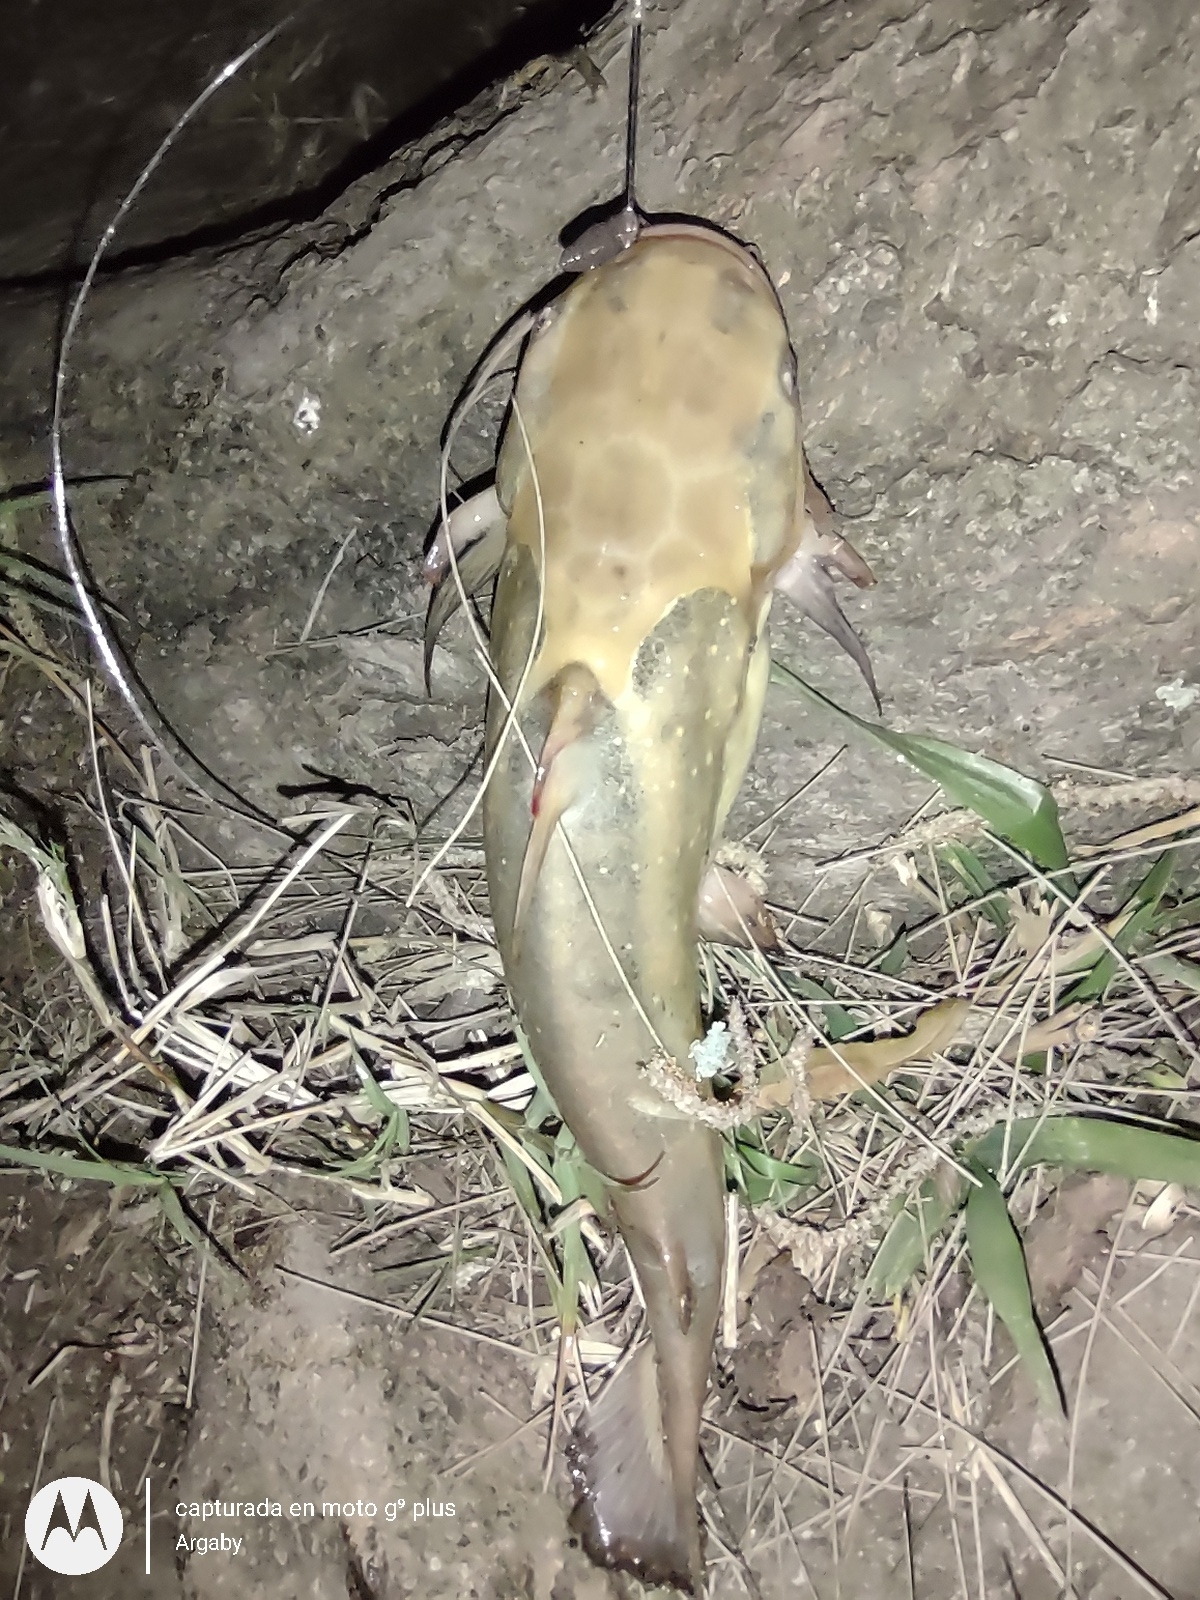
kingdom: Animalia
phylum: Chordata
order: Siluriformes
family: Auchenipteridae
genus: Trachelyopterus
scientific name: Trachelyopterus galeatus
